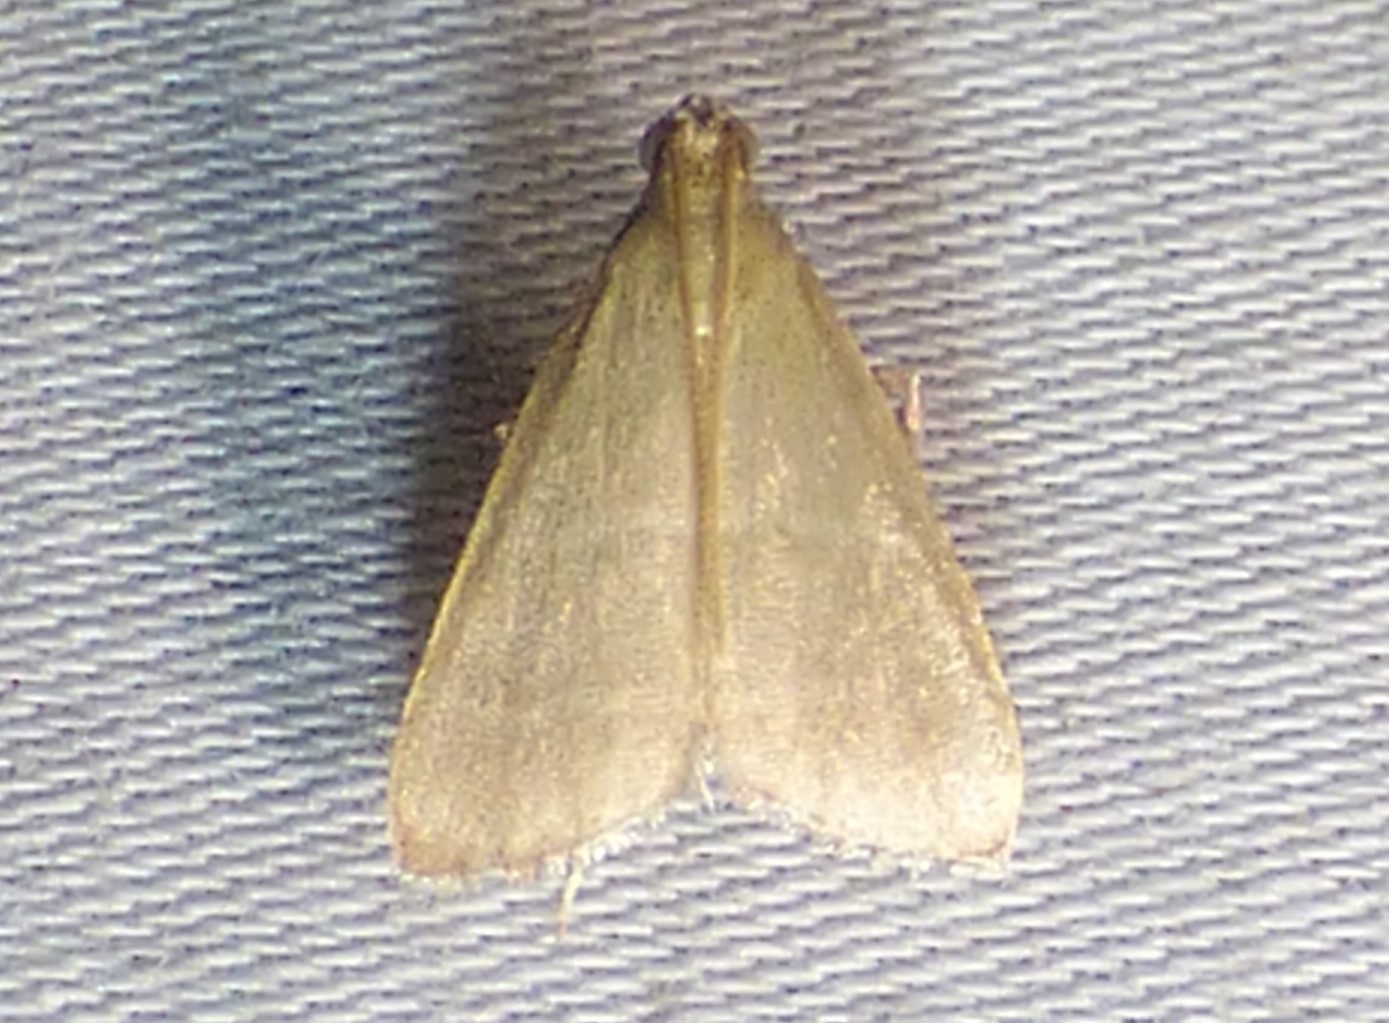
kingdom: Animalia
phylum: Arthropoda
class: Insecta
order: Lepidoptera
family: Pyralidae
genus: Arta
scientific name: Arta olivalis
